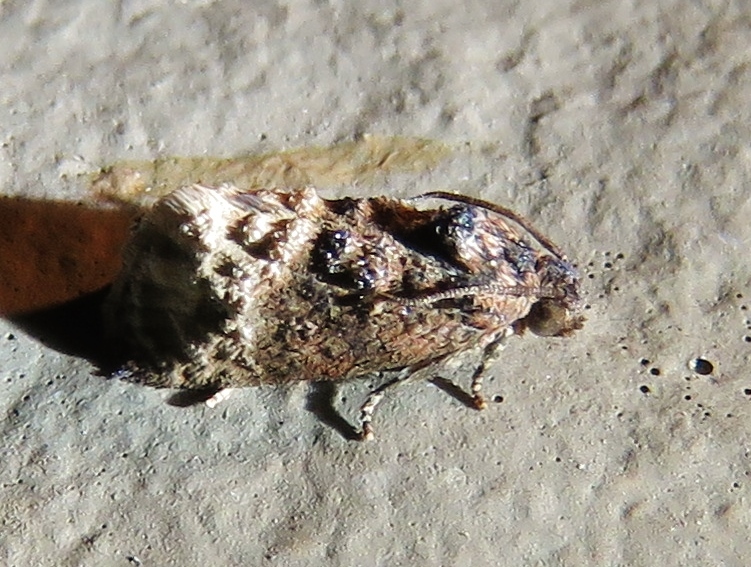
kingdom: Animalia
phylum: Arthropoda
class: Insecta
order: Lepidoptera
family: Tortricidae
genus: Ecdytolopha
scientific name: Ecdytolopha mana
